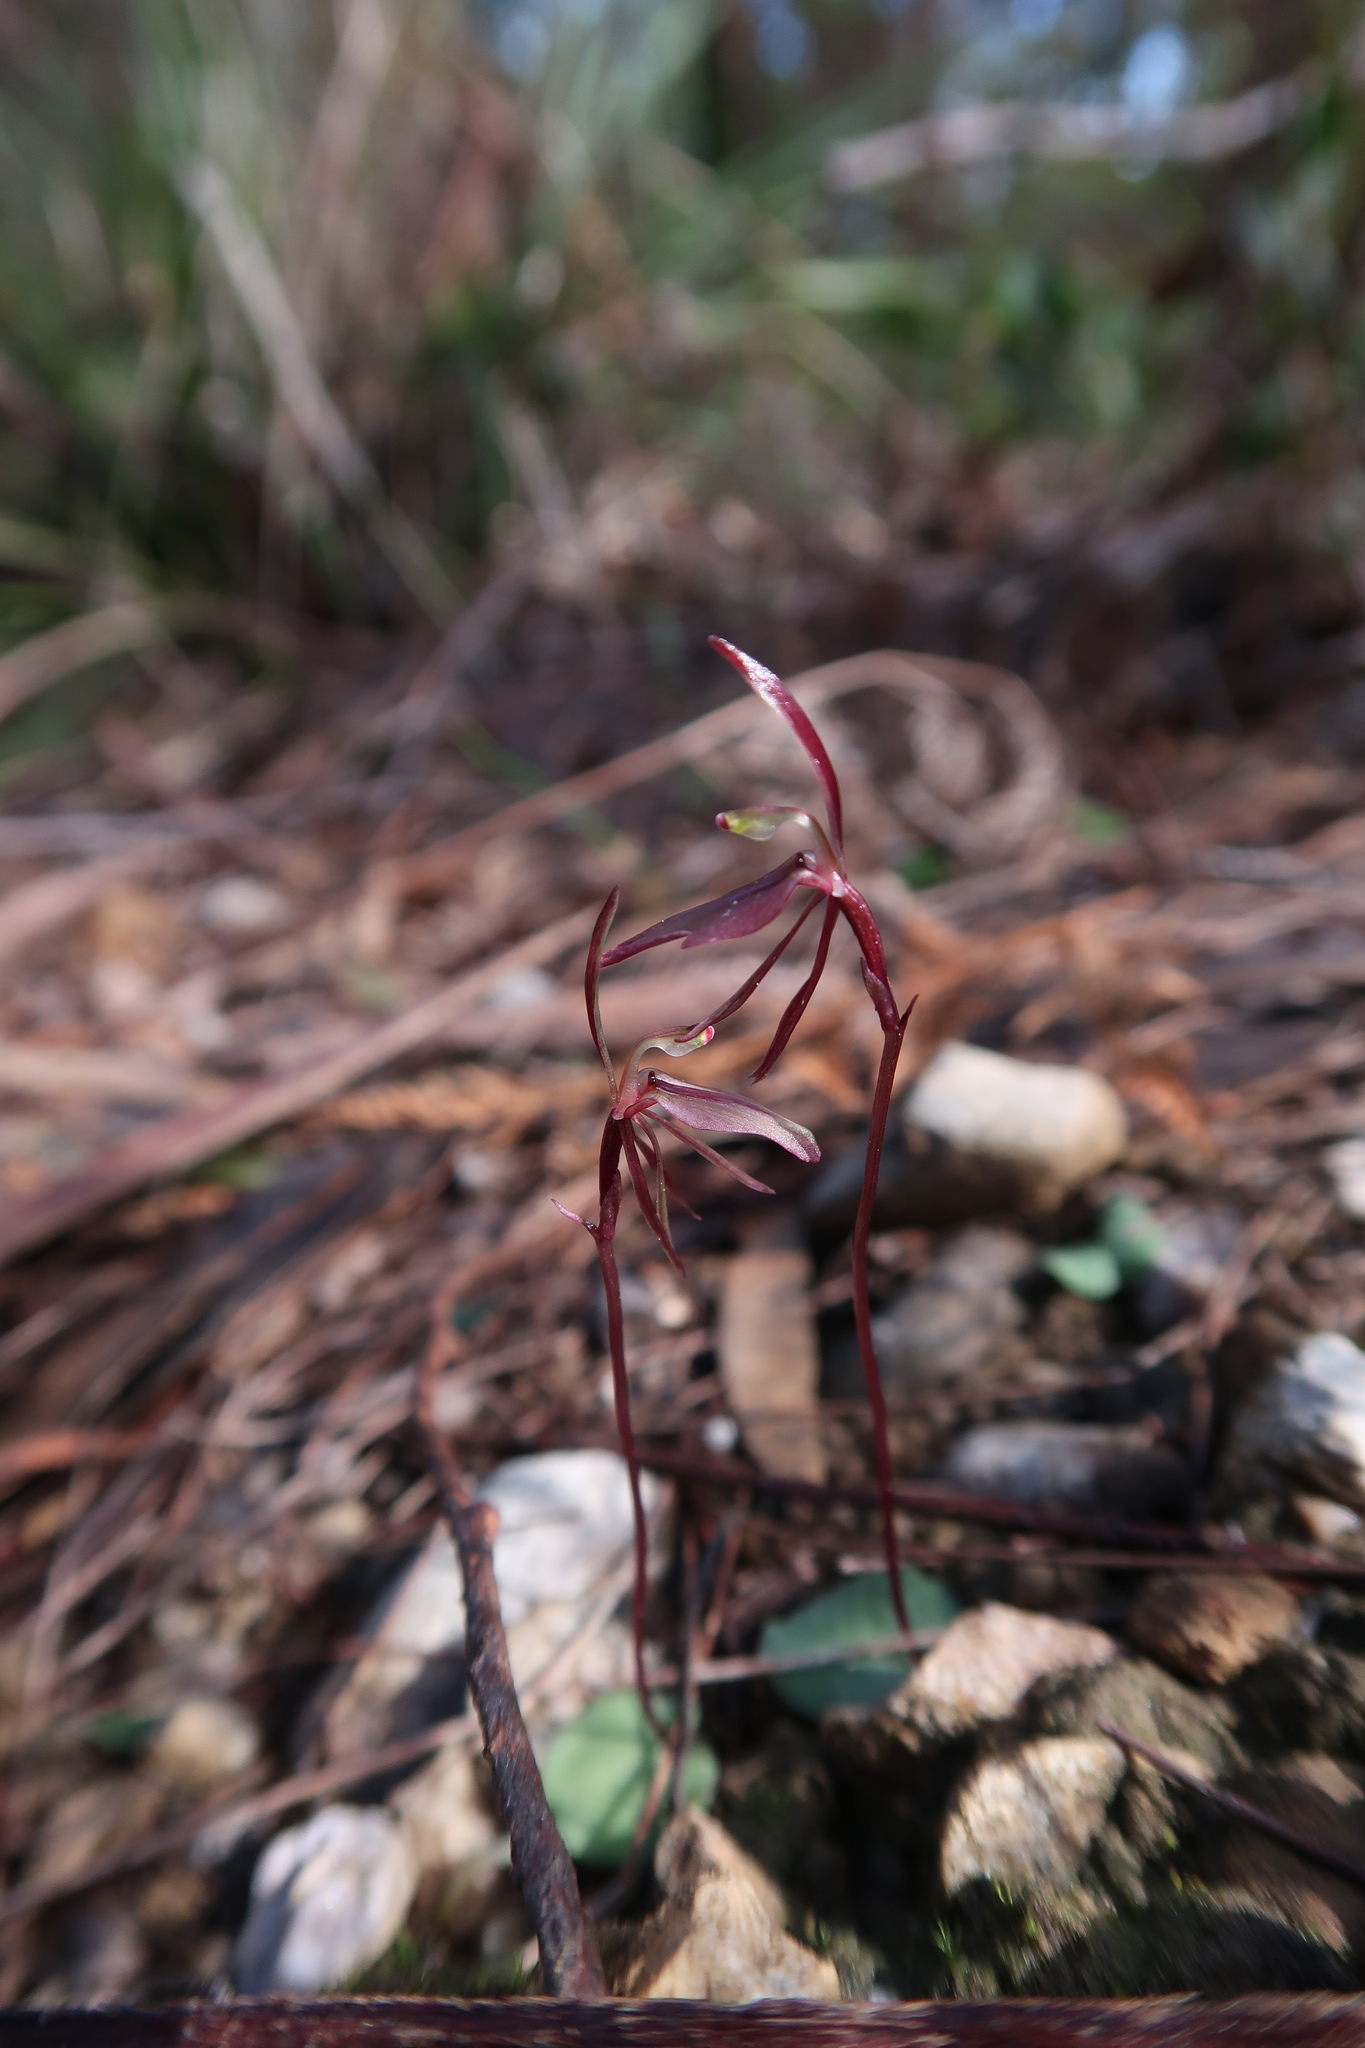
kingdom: Plantae
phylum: Tracheophyta
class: Liliopsida
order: Asparagales
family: Orchidaceae
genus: Cyrtostylis
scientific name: Cyrtostylis reniformis
